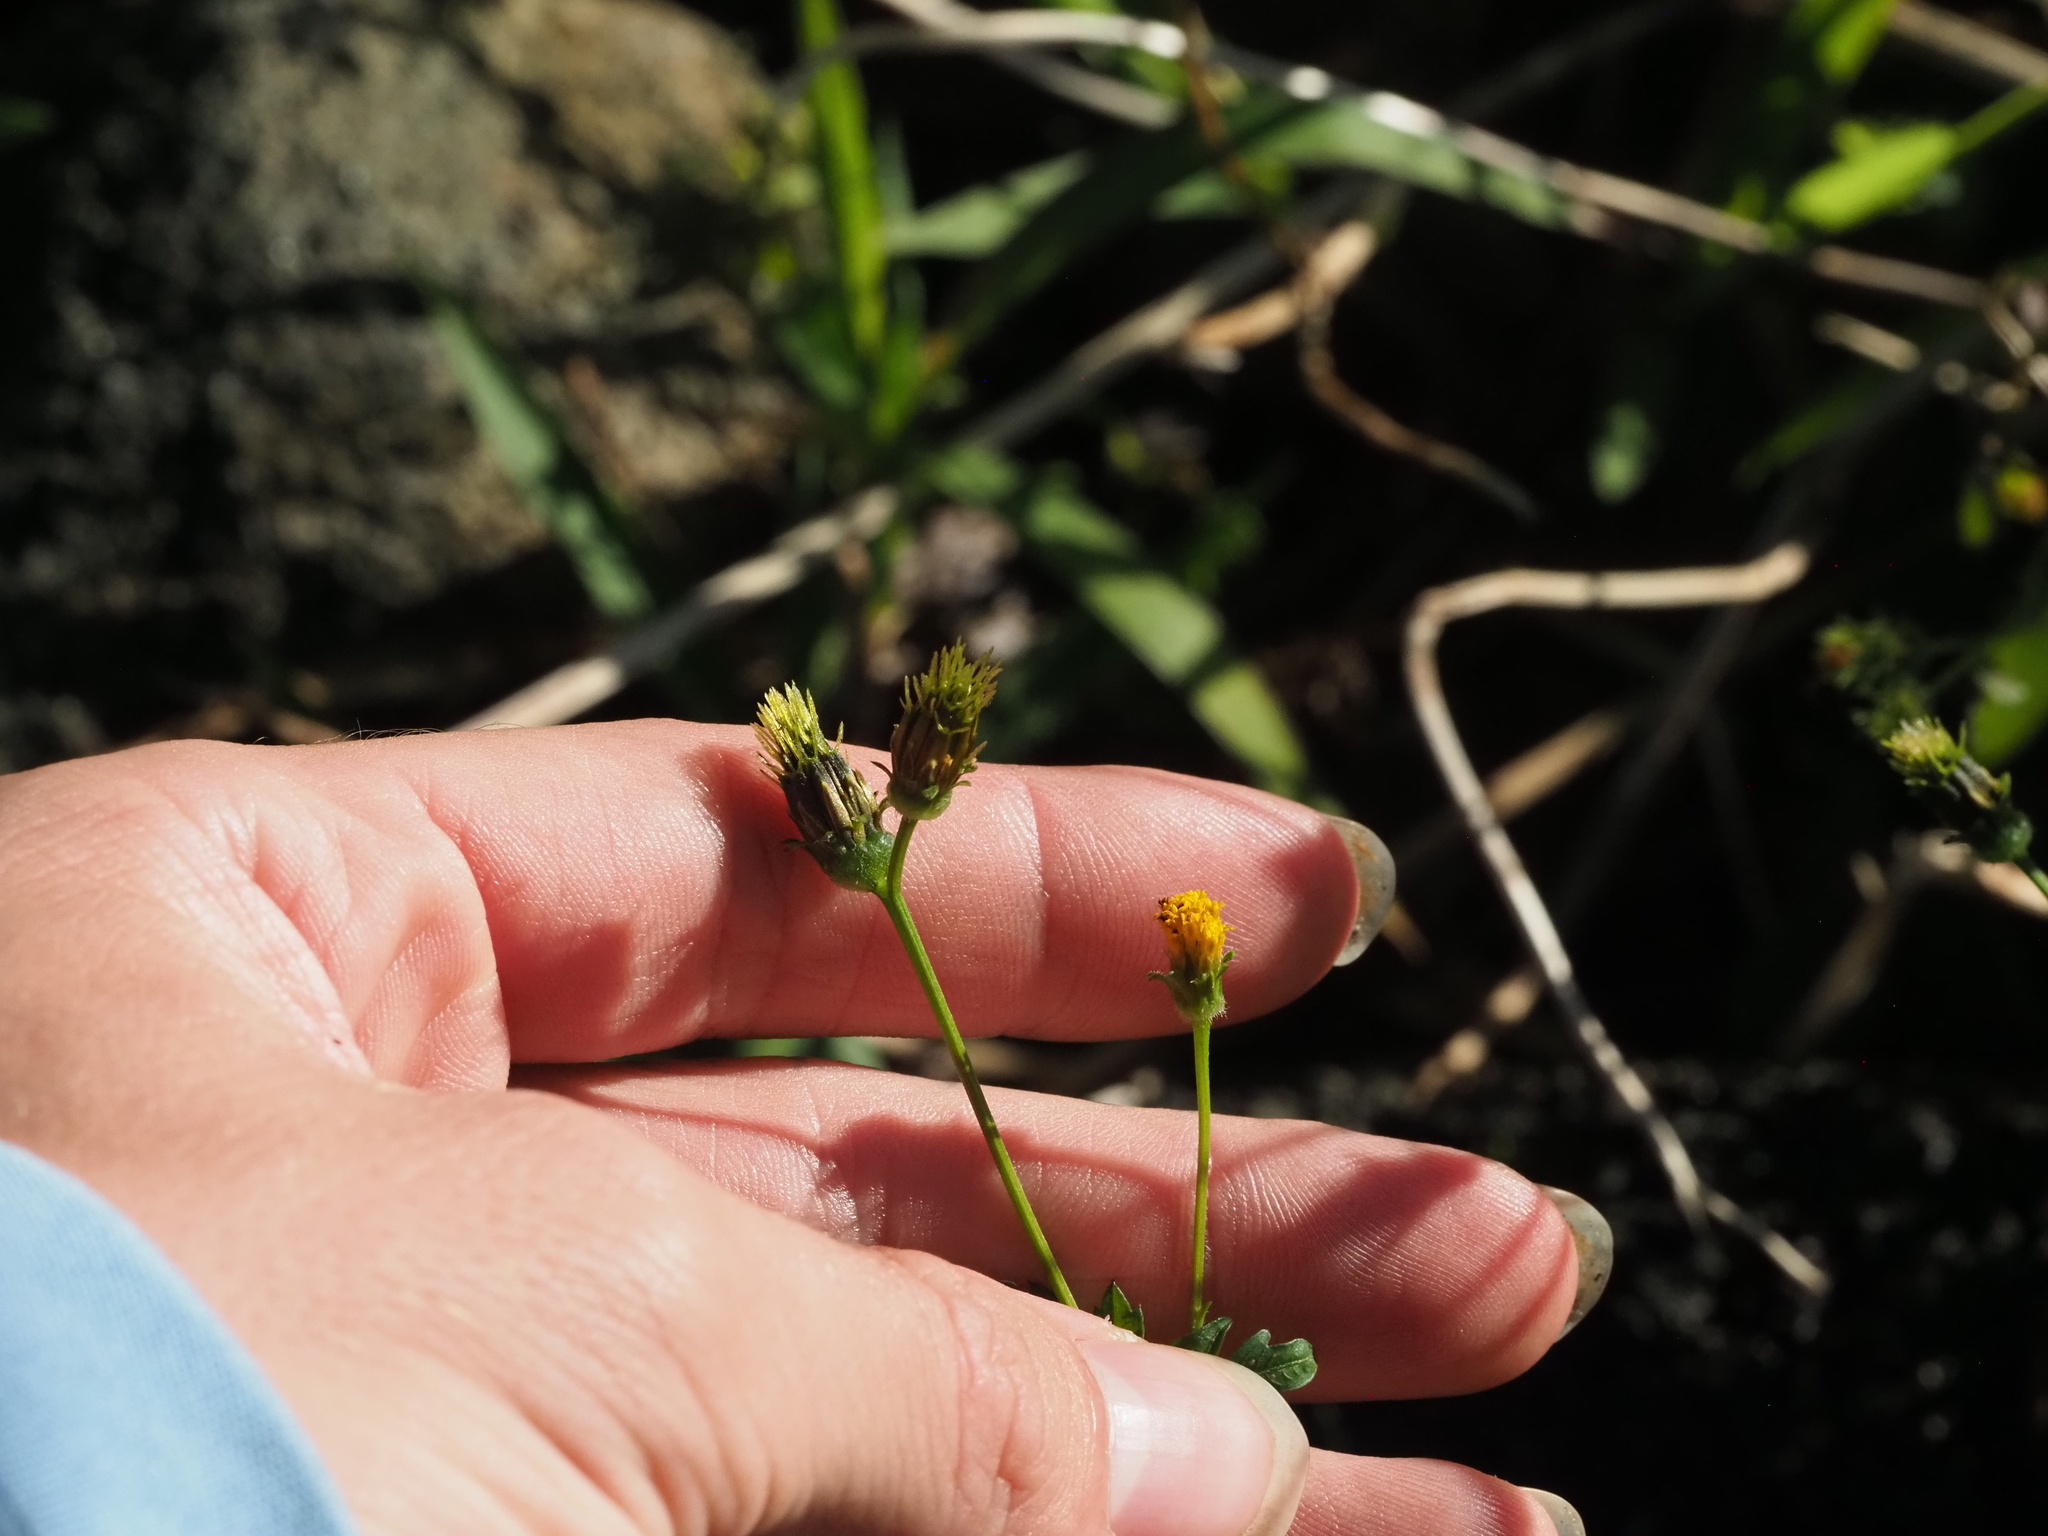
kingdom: Plantae
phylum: Tracheophyta
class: Magnoliopsida
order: Asterales
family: Asteraceae
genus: Bidens
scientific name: Bidens pilosa
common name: Black-jack
